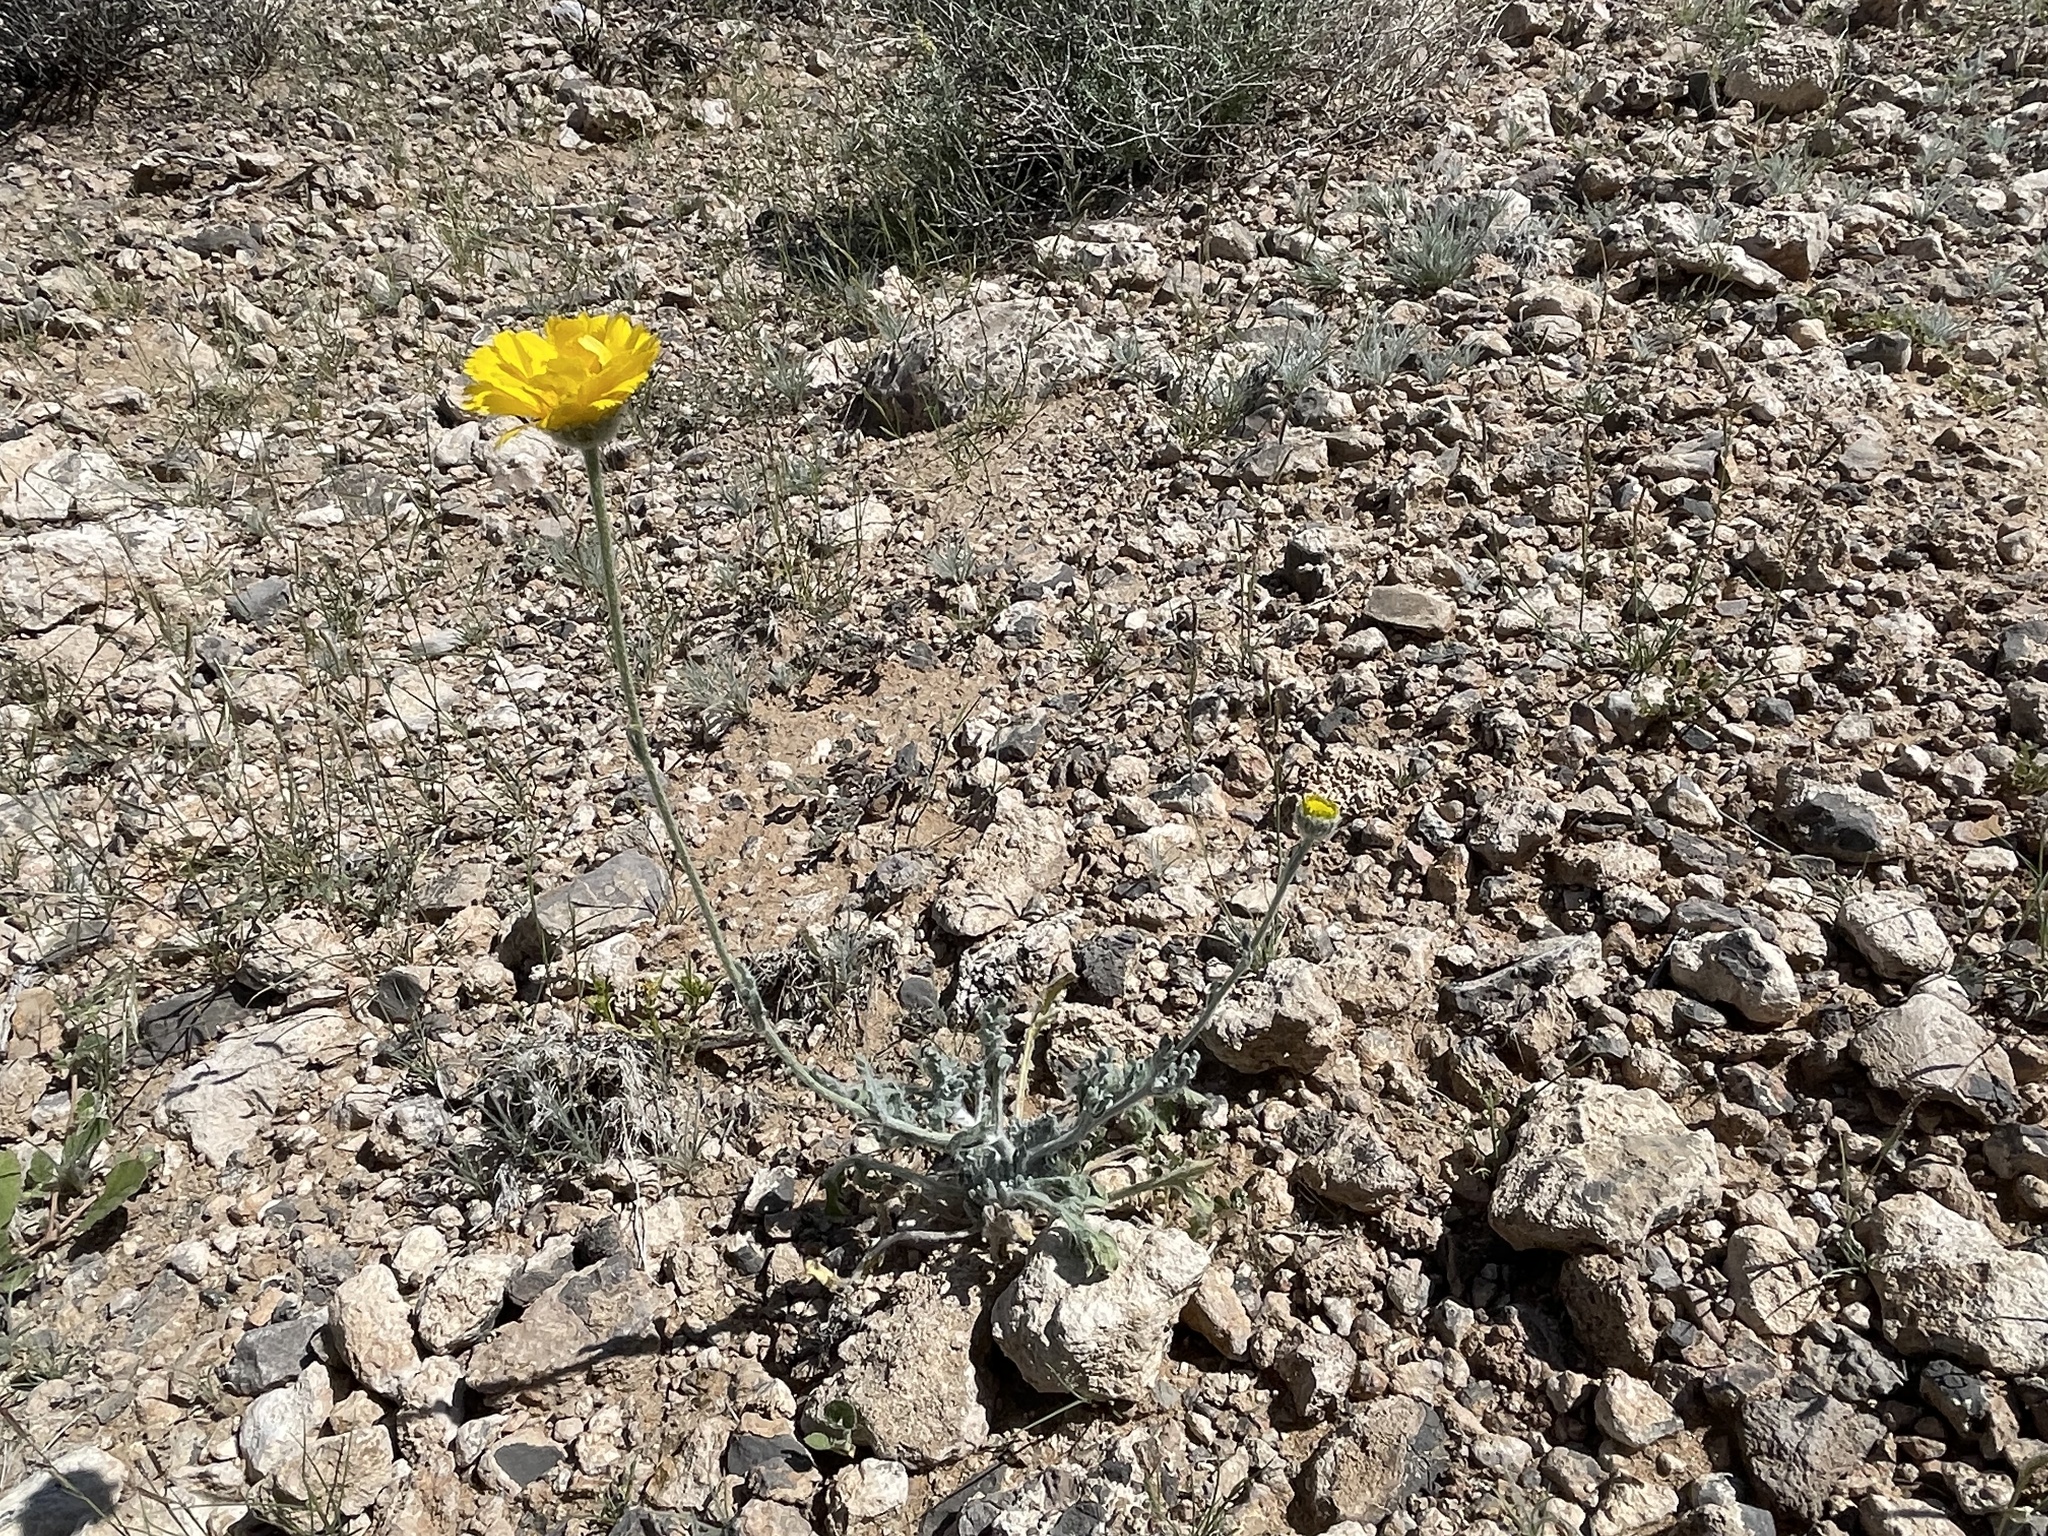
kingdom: Plantae
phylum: Tracheophyta
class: Magnoliopsida
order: Asterales
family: Asteraceae
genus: Baileya
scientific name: Baileya multiradiata
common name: Desert-marigold
